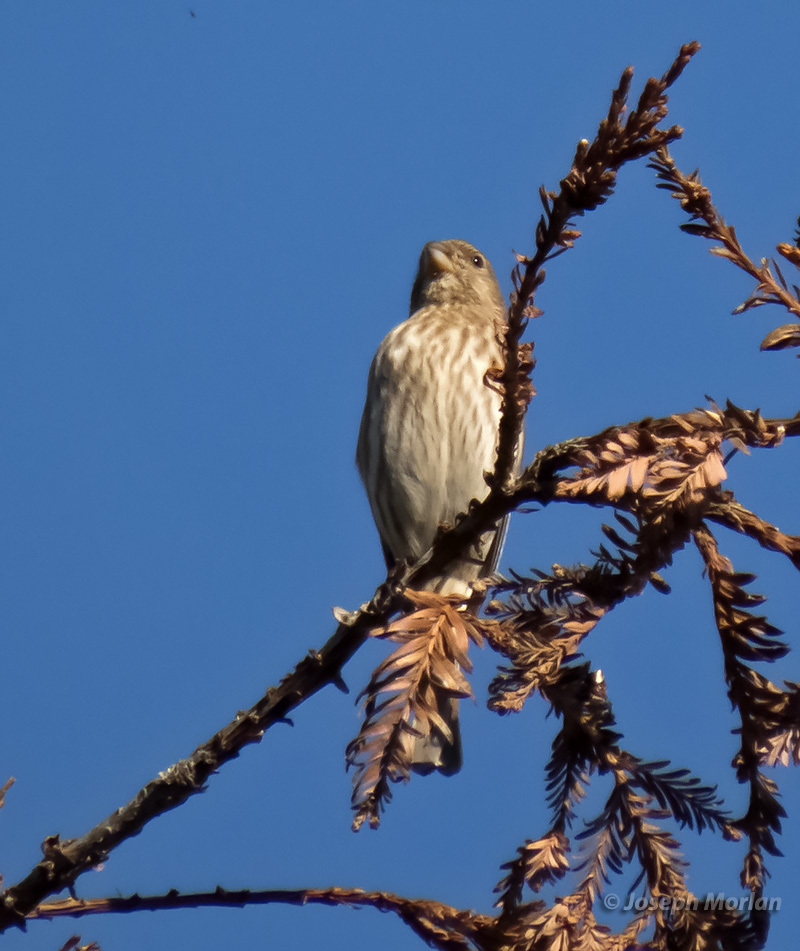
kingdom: Animalia
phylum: Chordata
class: Aves
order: Passeriformes
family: Fringillidae
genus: Haemorhous
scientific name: Haemorhous mexicanus
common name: House finch
